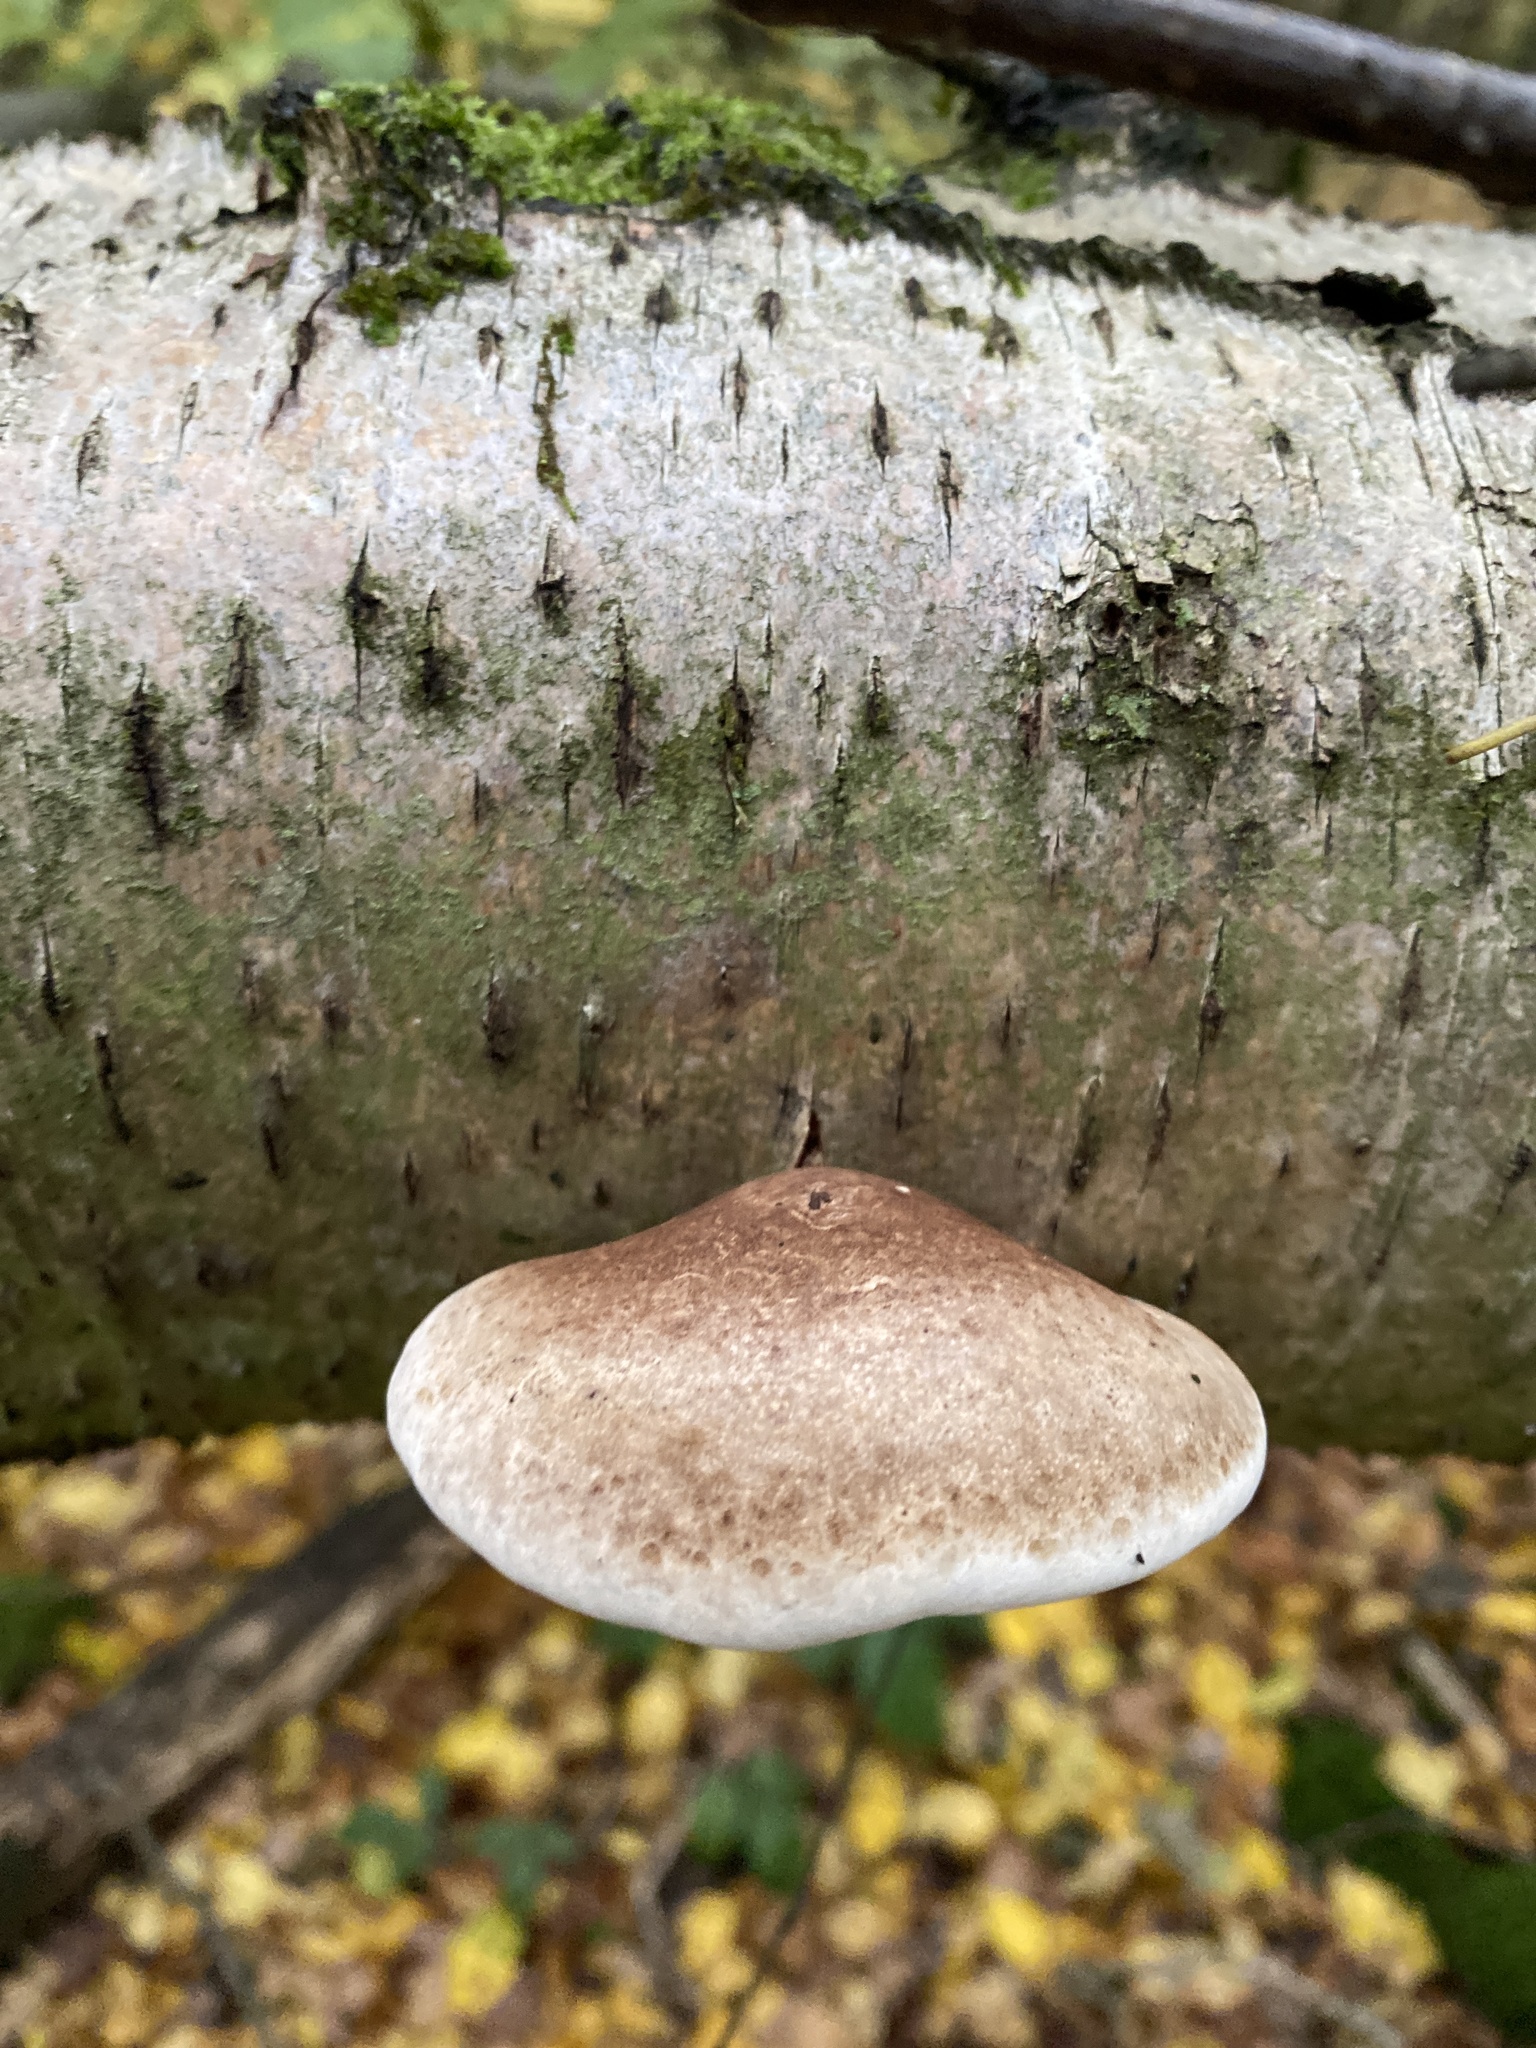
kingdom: Fungi
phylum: Basidiomycota
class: Agaricomycetes
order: Polyporales
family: Fomitopsidaceae
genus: Fomitopsis
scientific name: Fomitopsis betulina
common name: Birch polypore
